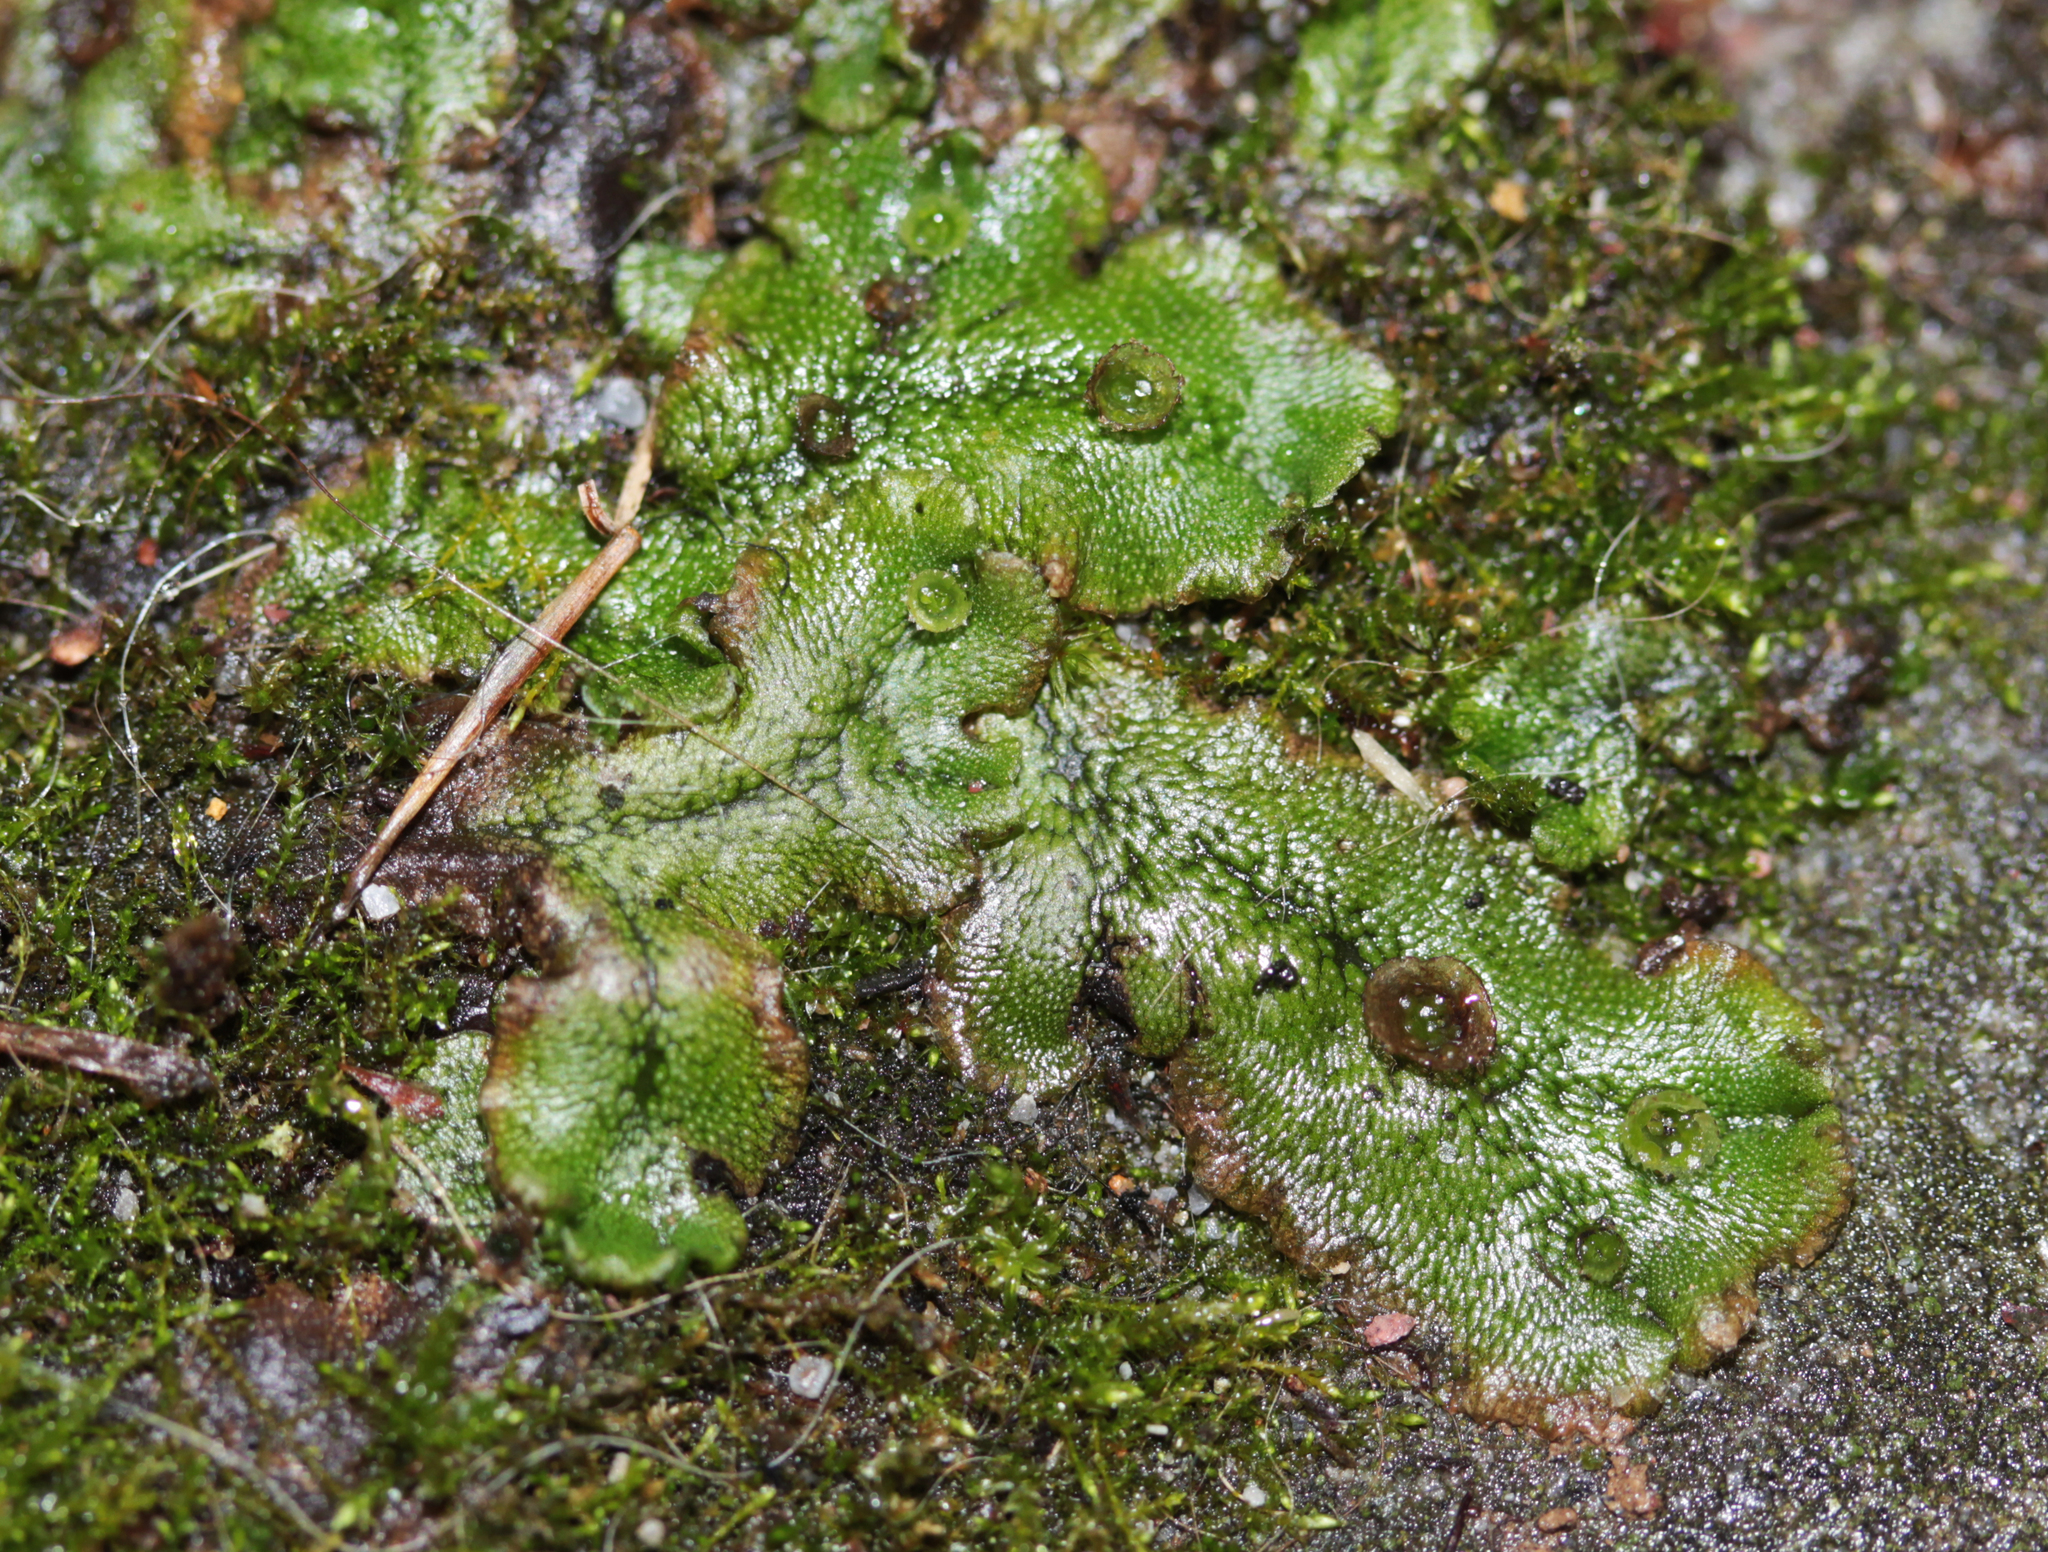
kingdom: Plantae
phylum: Marchantiophyta
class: Marchantiopsida
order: Marchantiales
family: Marchantiaceae
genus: Marchantia
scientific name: Marchantia polymorpha
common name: Common liverwort
